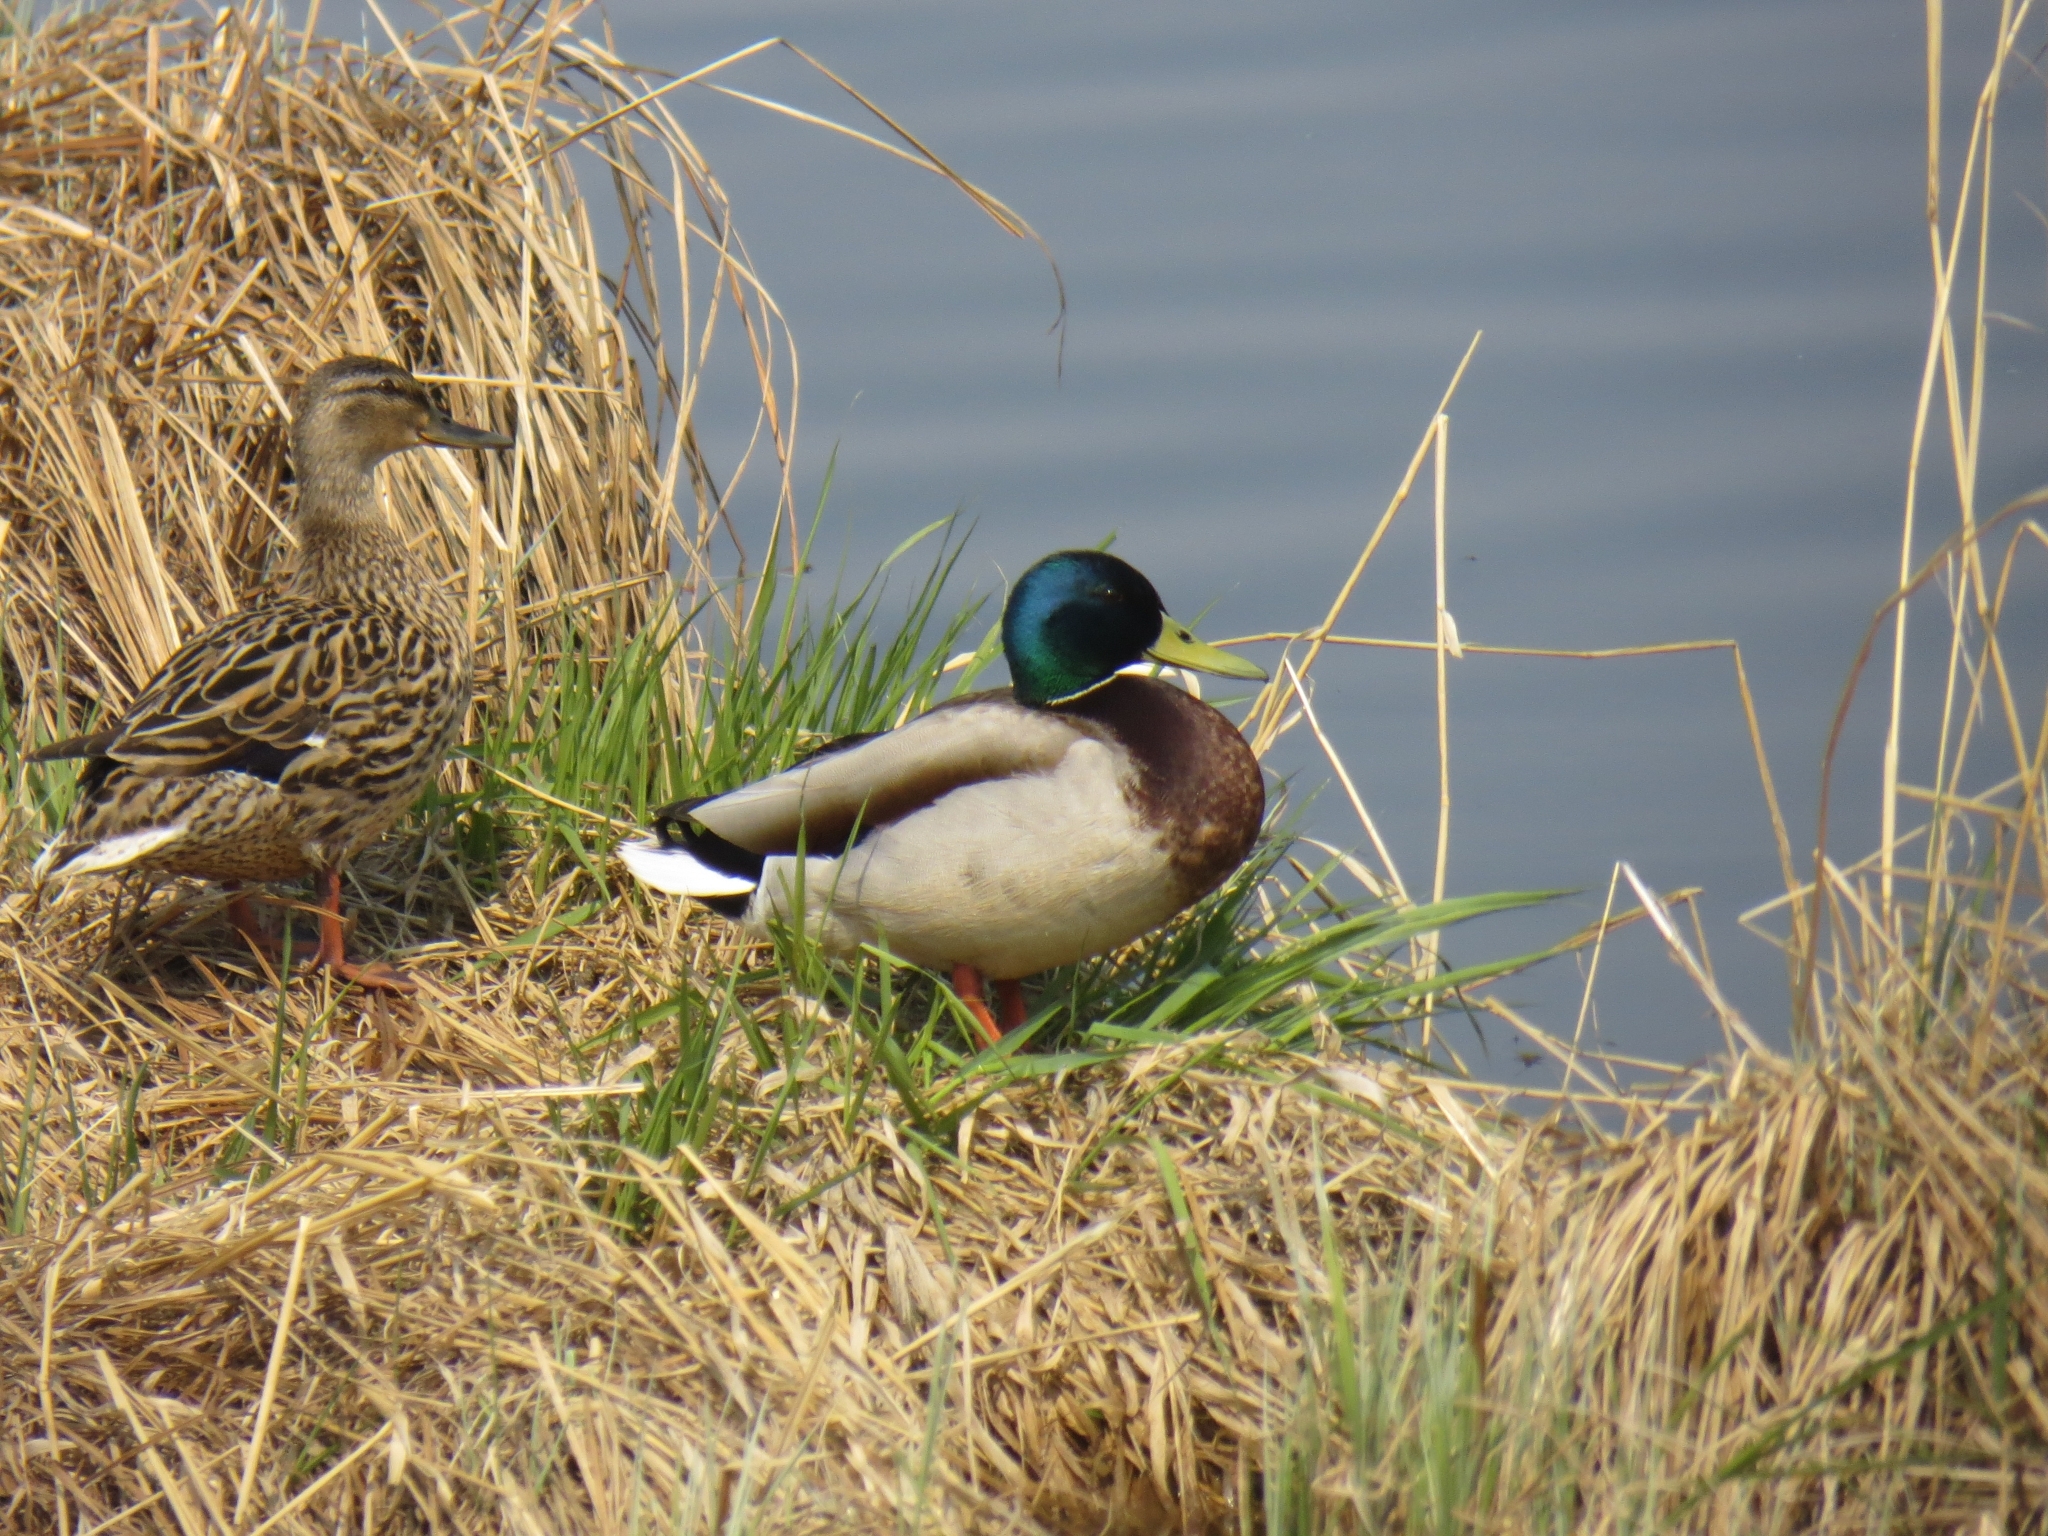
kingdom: Animalia
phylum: Chordata
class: Aves
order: Anseriformes
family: Anatidae
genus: Anas
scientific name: Anas platyrhynchos
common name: Mallard
